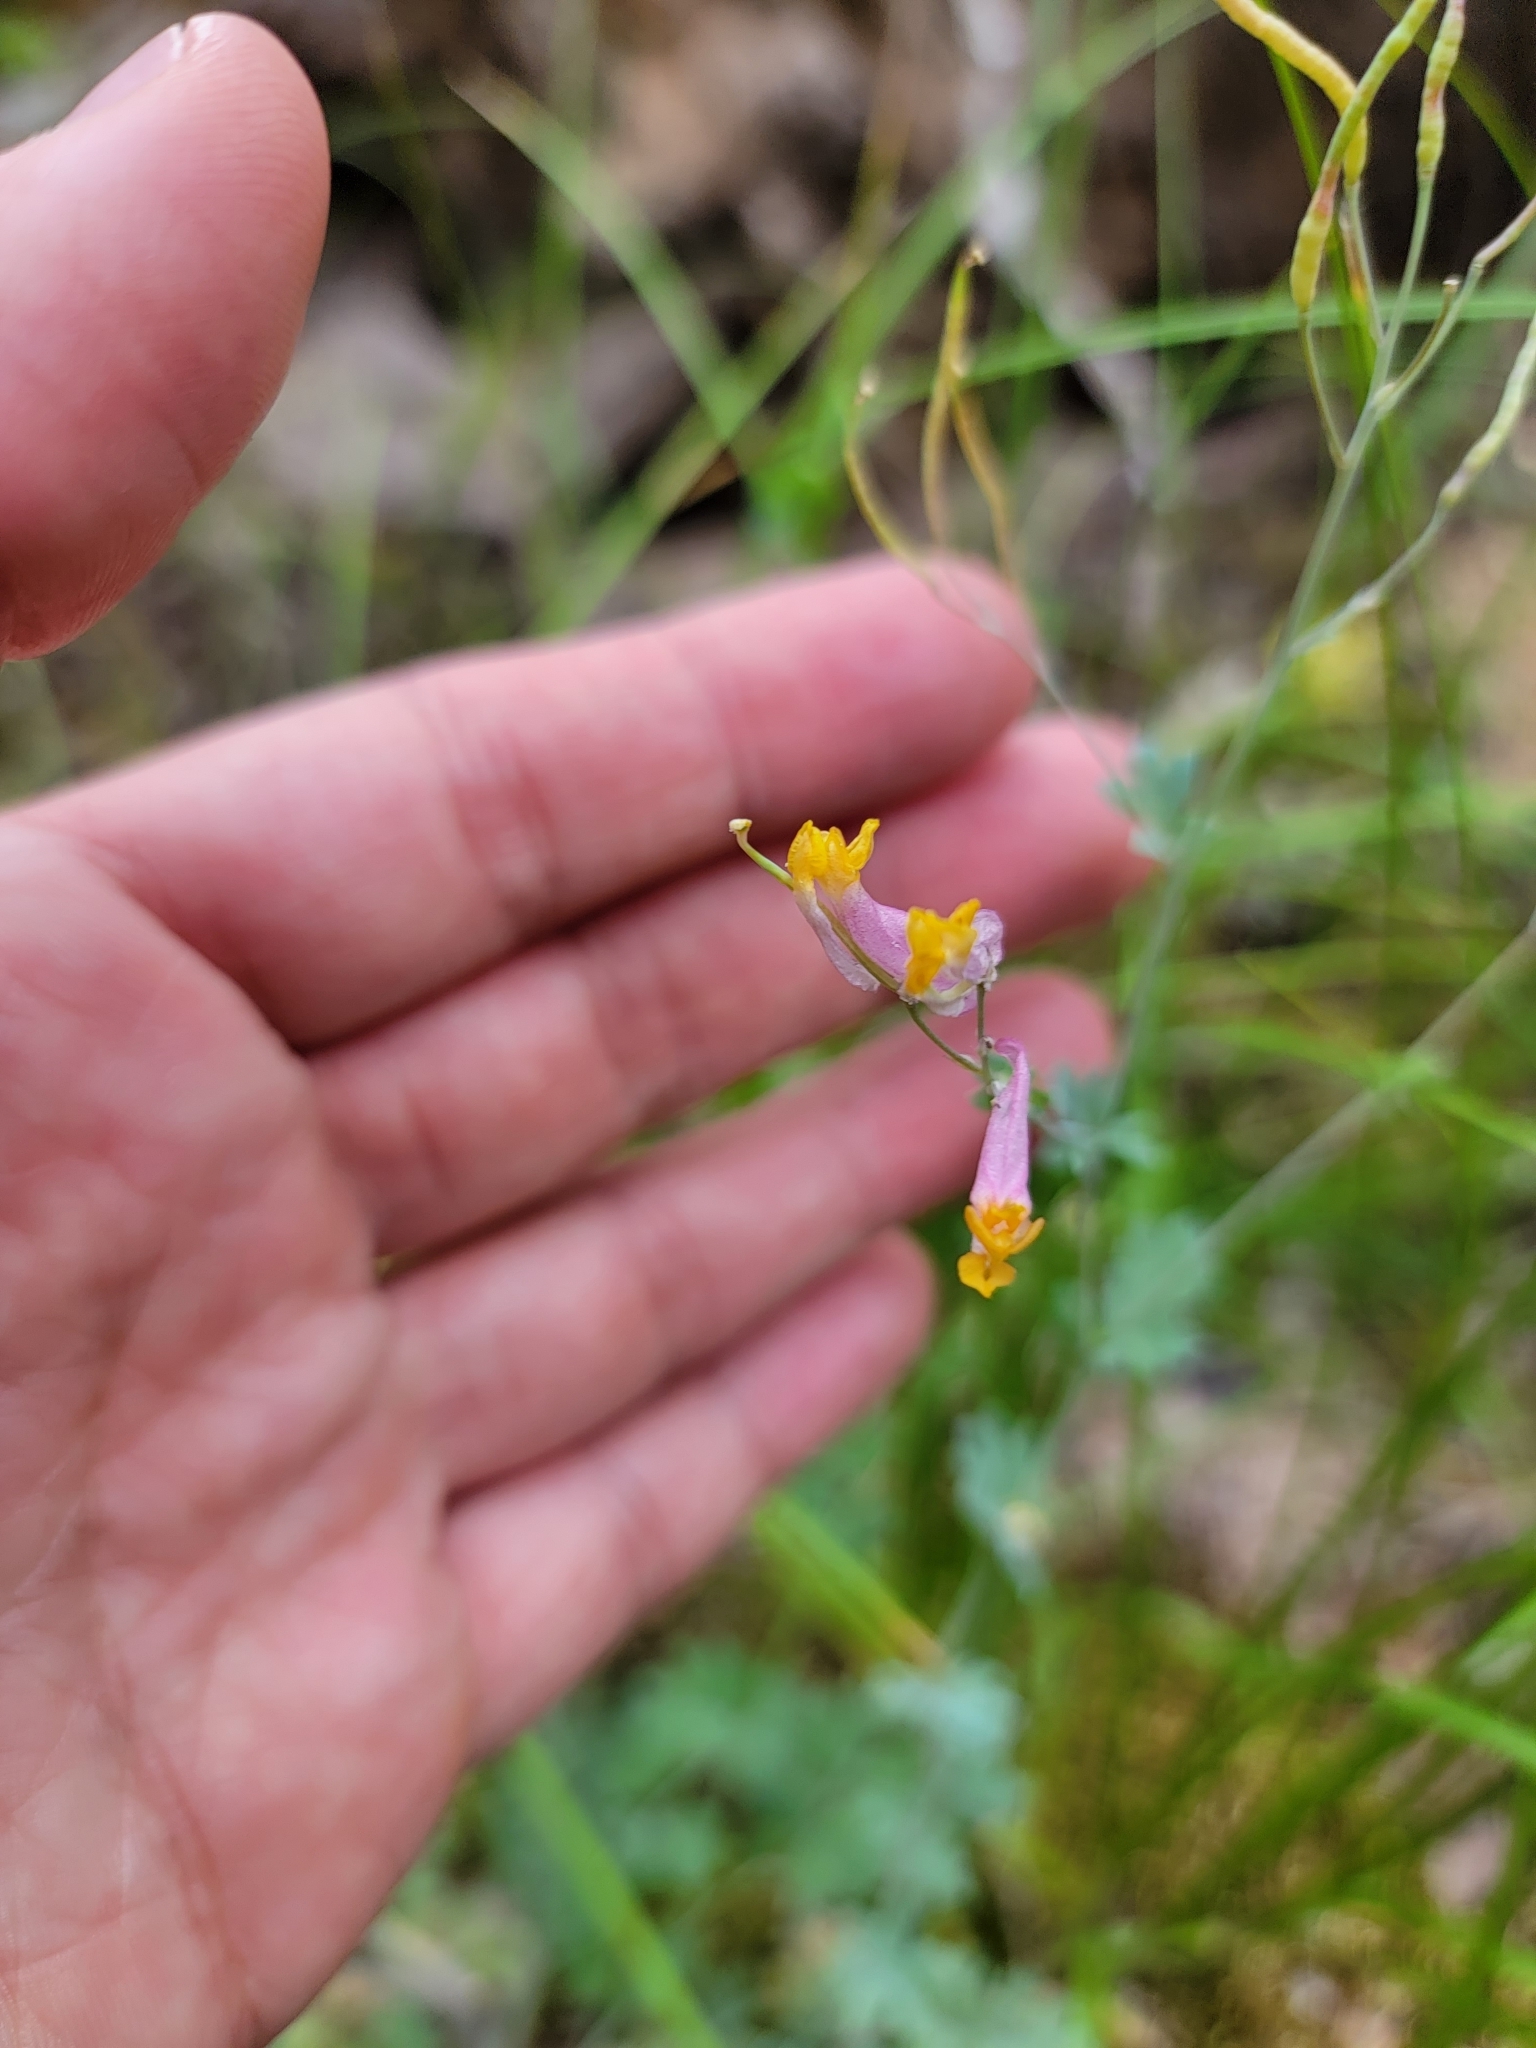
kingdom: Plantae
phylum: Tracheophyta
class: Magnoliopsida
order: Ranunculales
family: Papaveraceae
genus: Capnoides
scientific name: Capnoides sempervirens
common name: Rock harlequin
